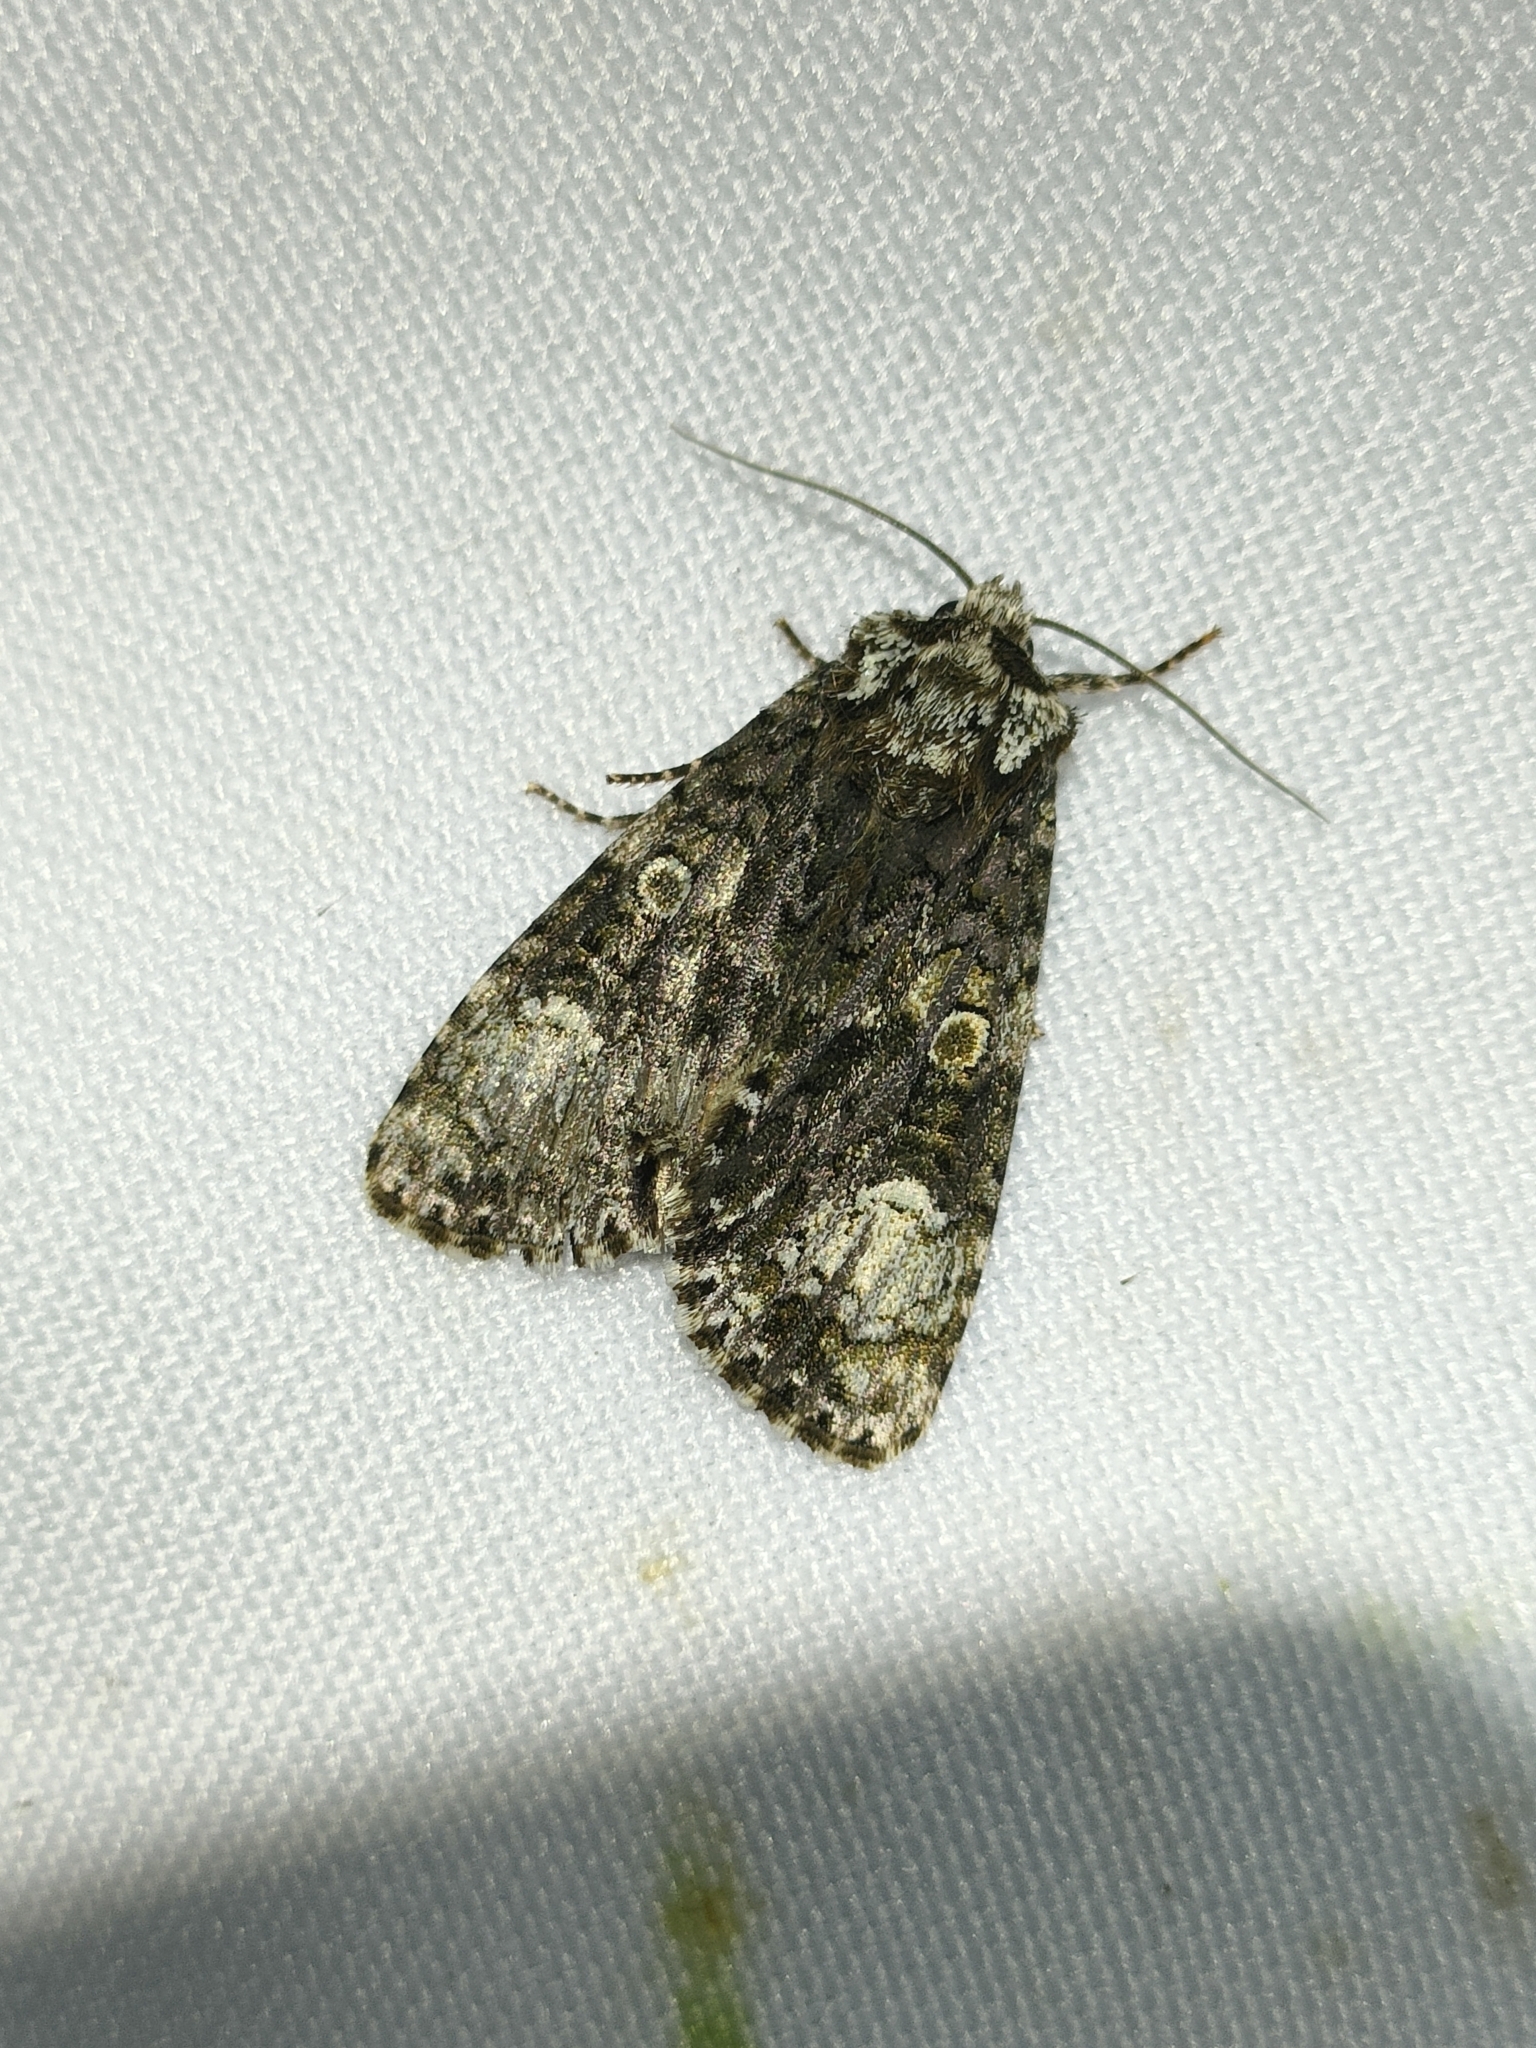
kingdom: Animalia
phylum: Arthropoda
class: Insecta
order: Lepidoptera
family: Noctuidae
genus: Craniophora
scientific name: Craniophora ligustri
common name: Coronet
